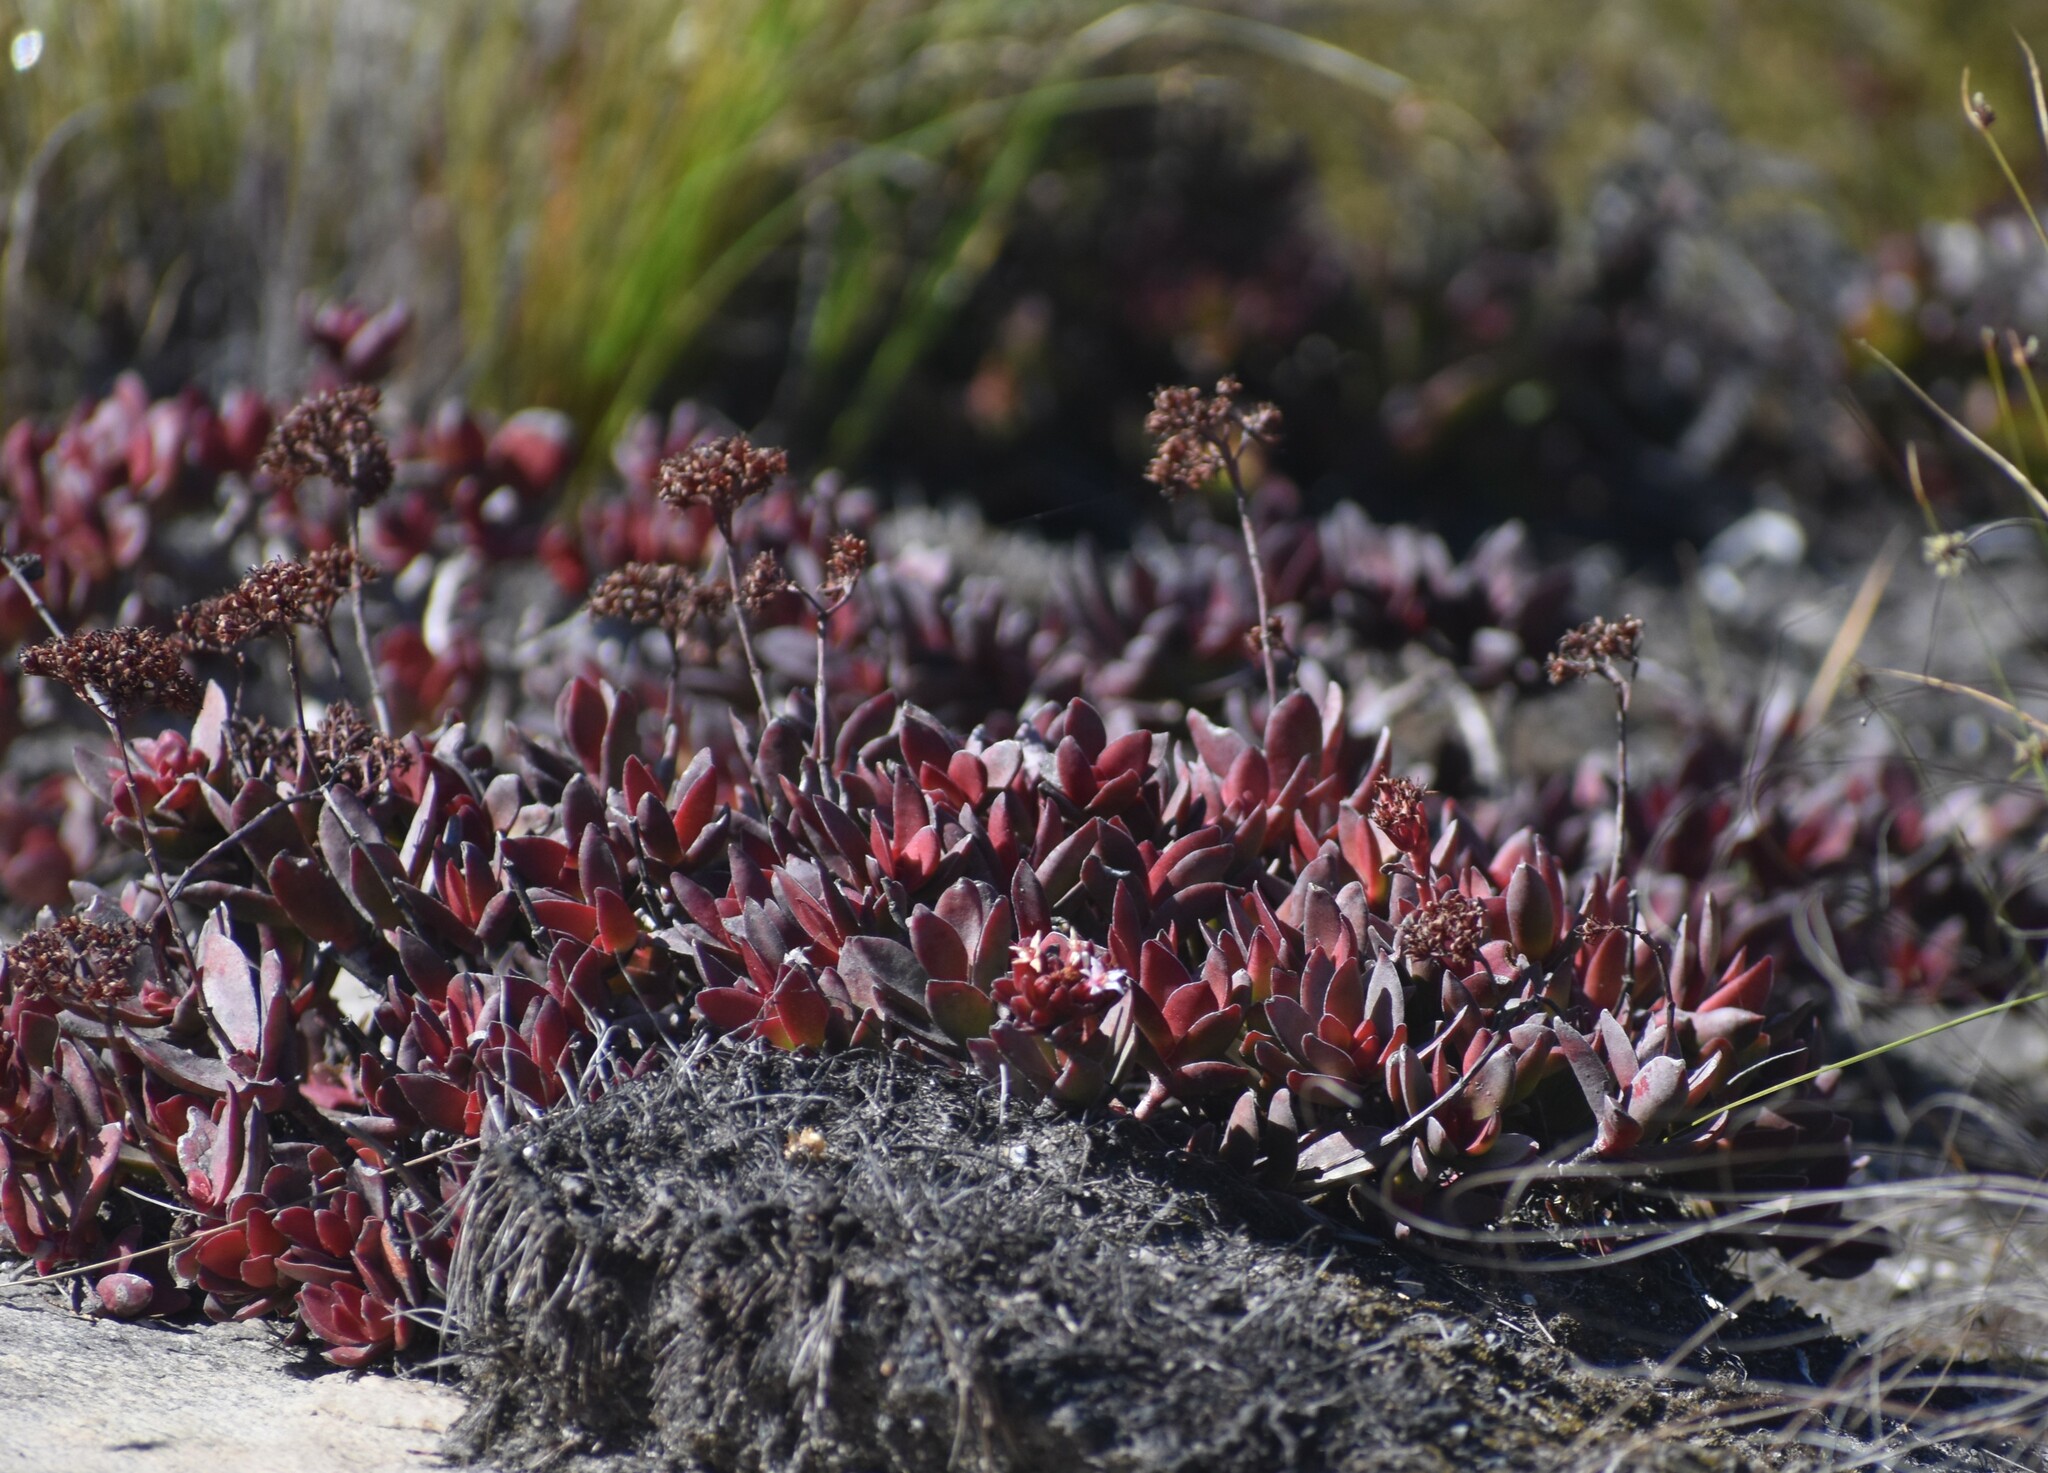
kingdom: Plantae
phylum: Tracheophyta
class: Magnoliopsida
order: Saxifragales
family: Crassulaceae
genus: Crassula
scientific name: Crassula rubricaulis
